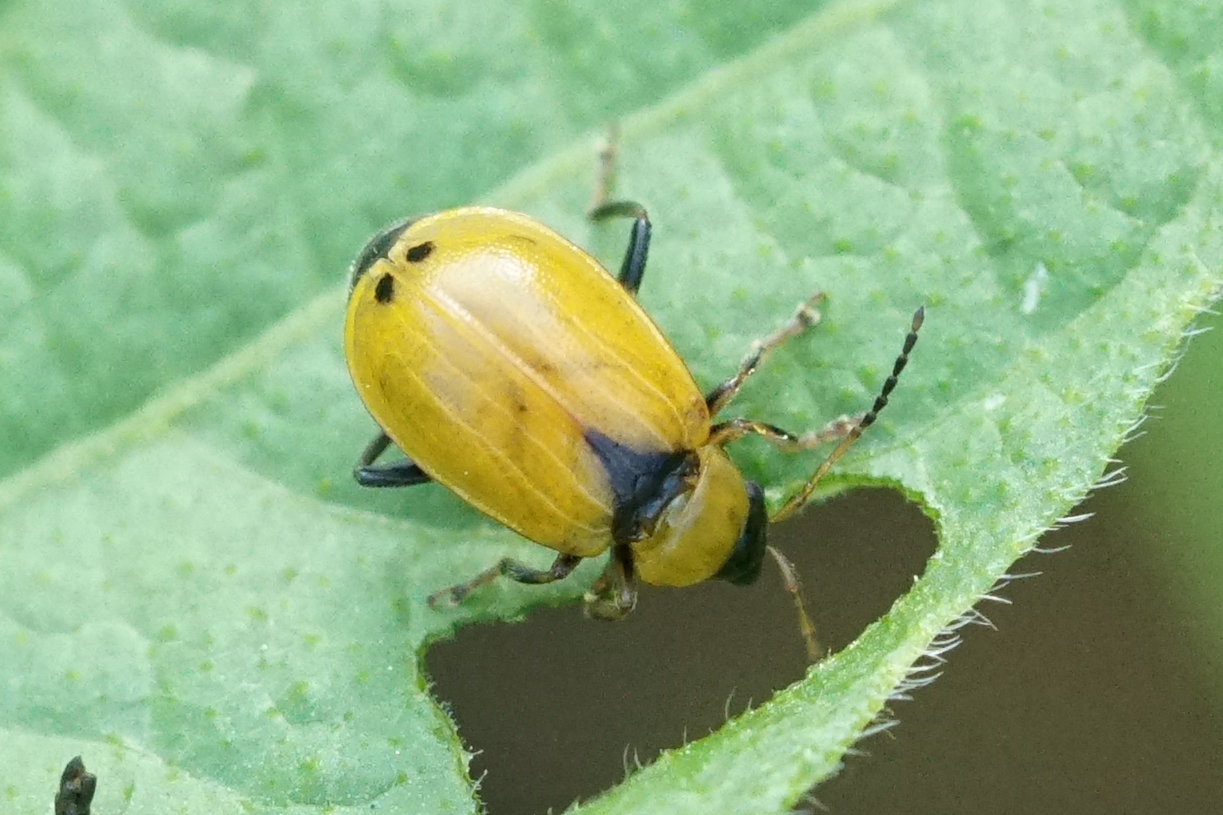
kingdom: Animalia
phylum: Arthropoda
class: Insecta
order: Coleoptera
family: Chrysomelidae
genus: Cerotoma
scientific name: Cerotoma trifurcata
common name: Bean leaf beetle
